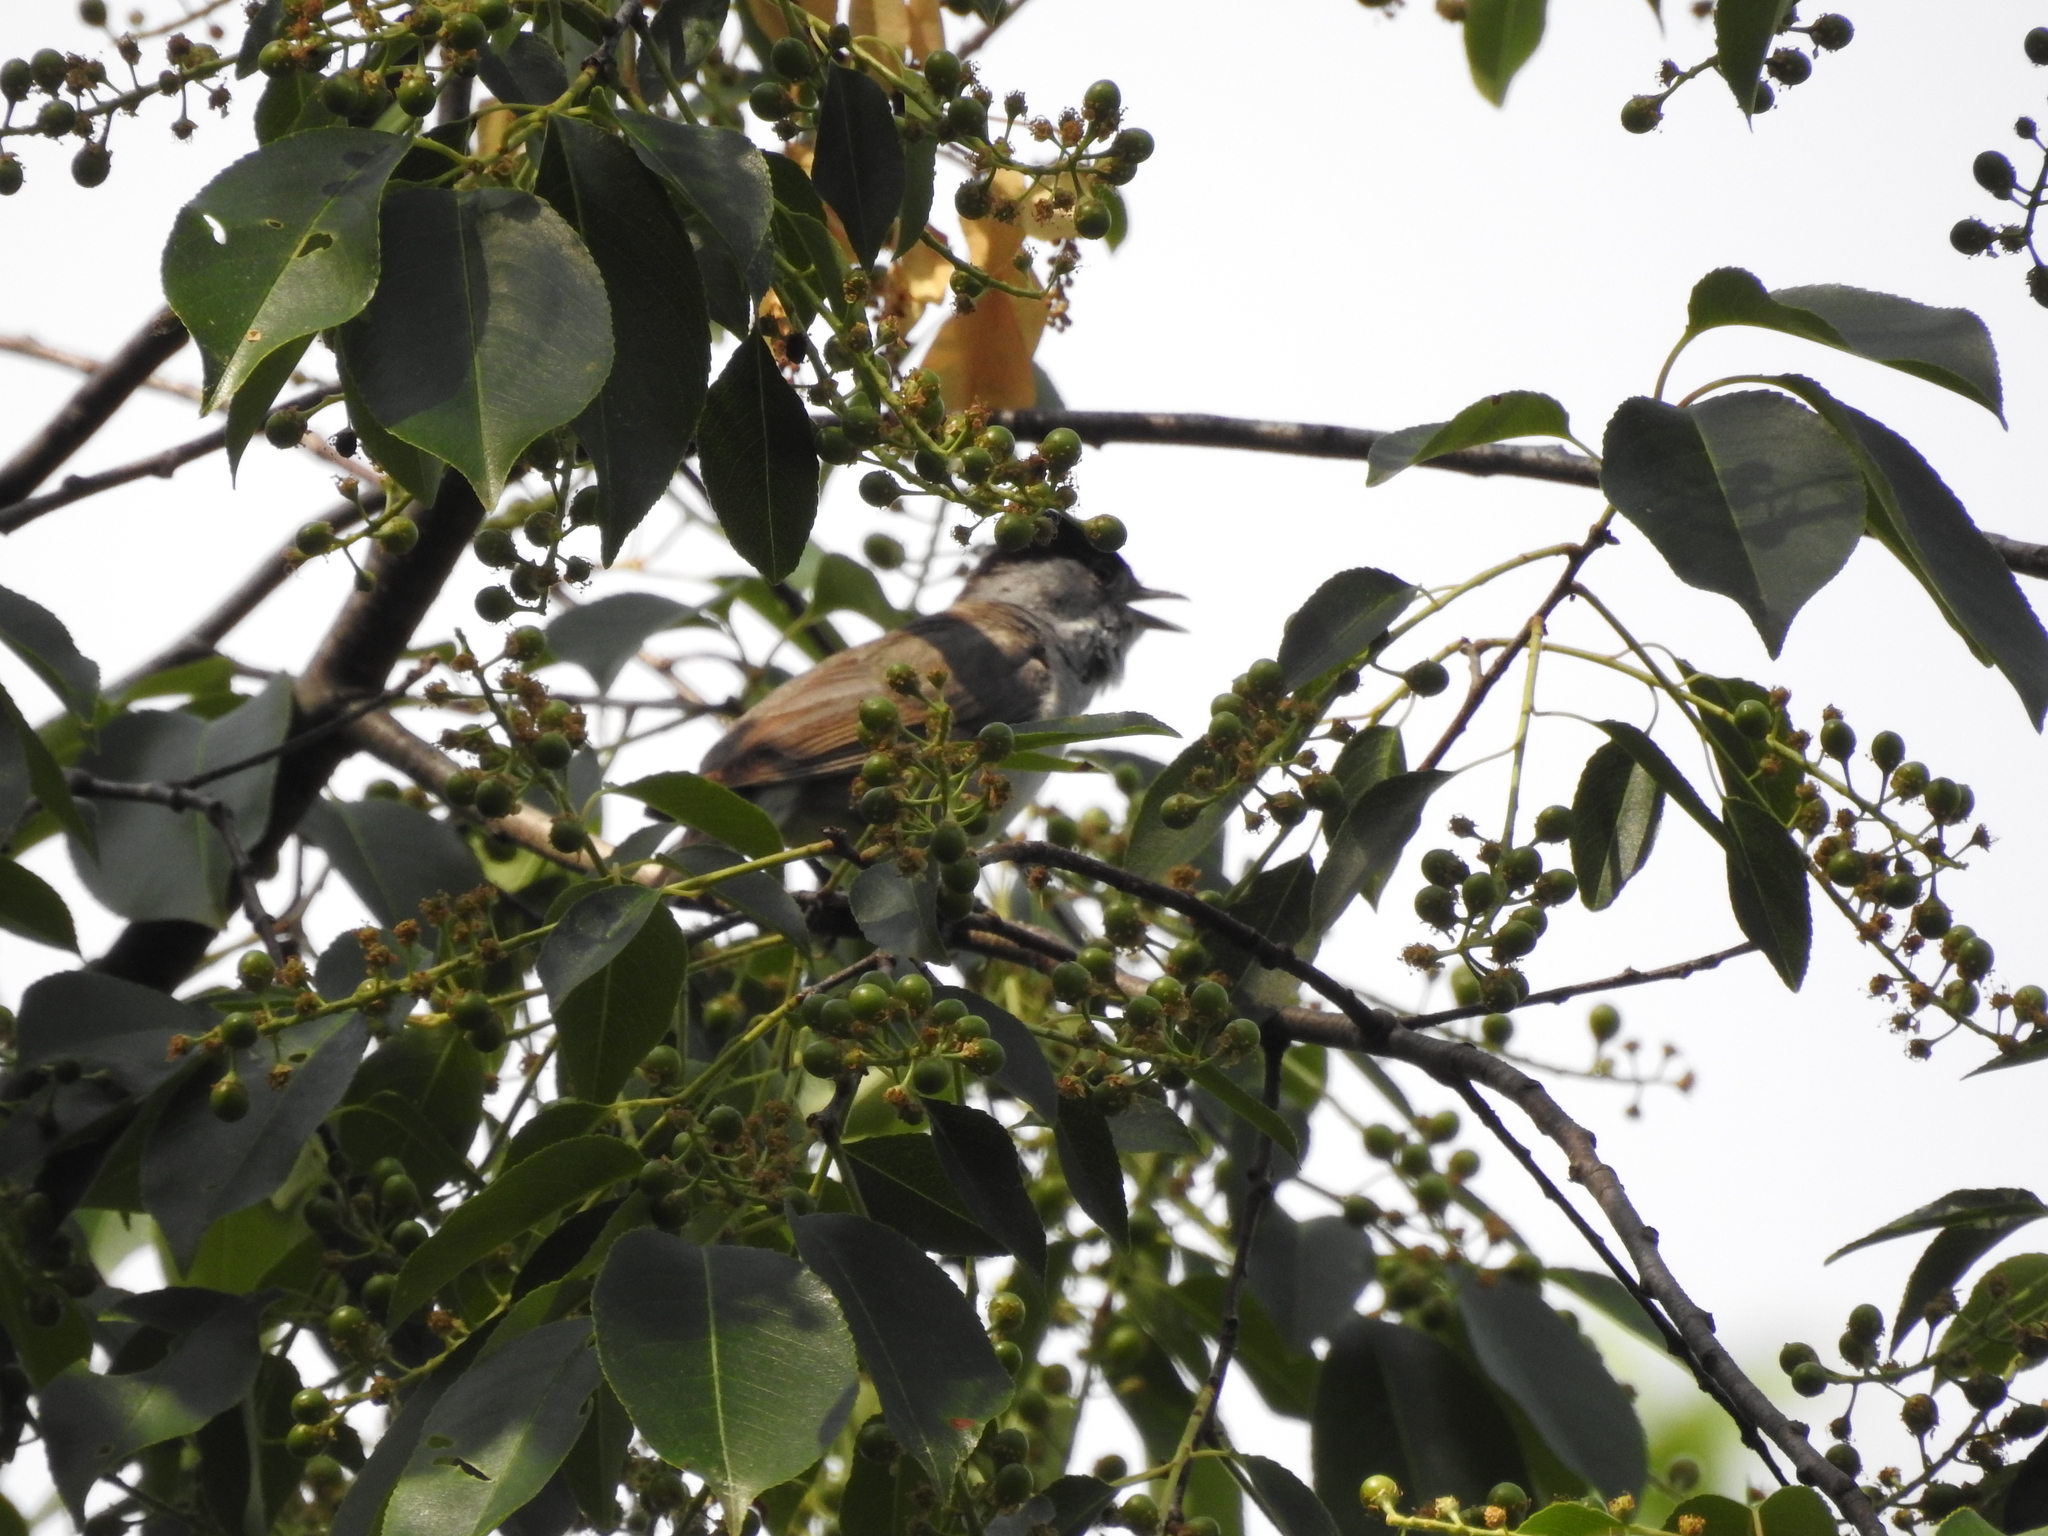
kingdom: Animalia
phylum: Chordata
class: Aves
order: Passeriformes
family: Sylviidae
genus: Sylvia
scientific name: Sylvia atricapilla
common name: Eurasian blackcap
